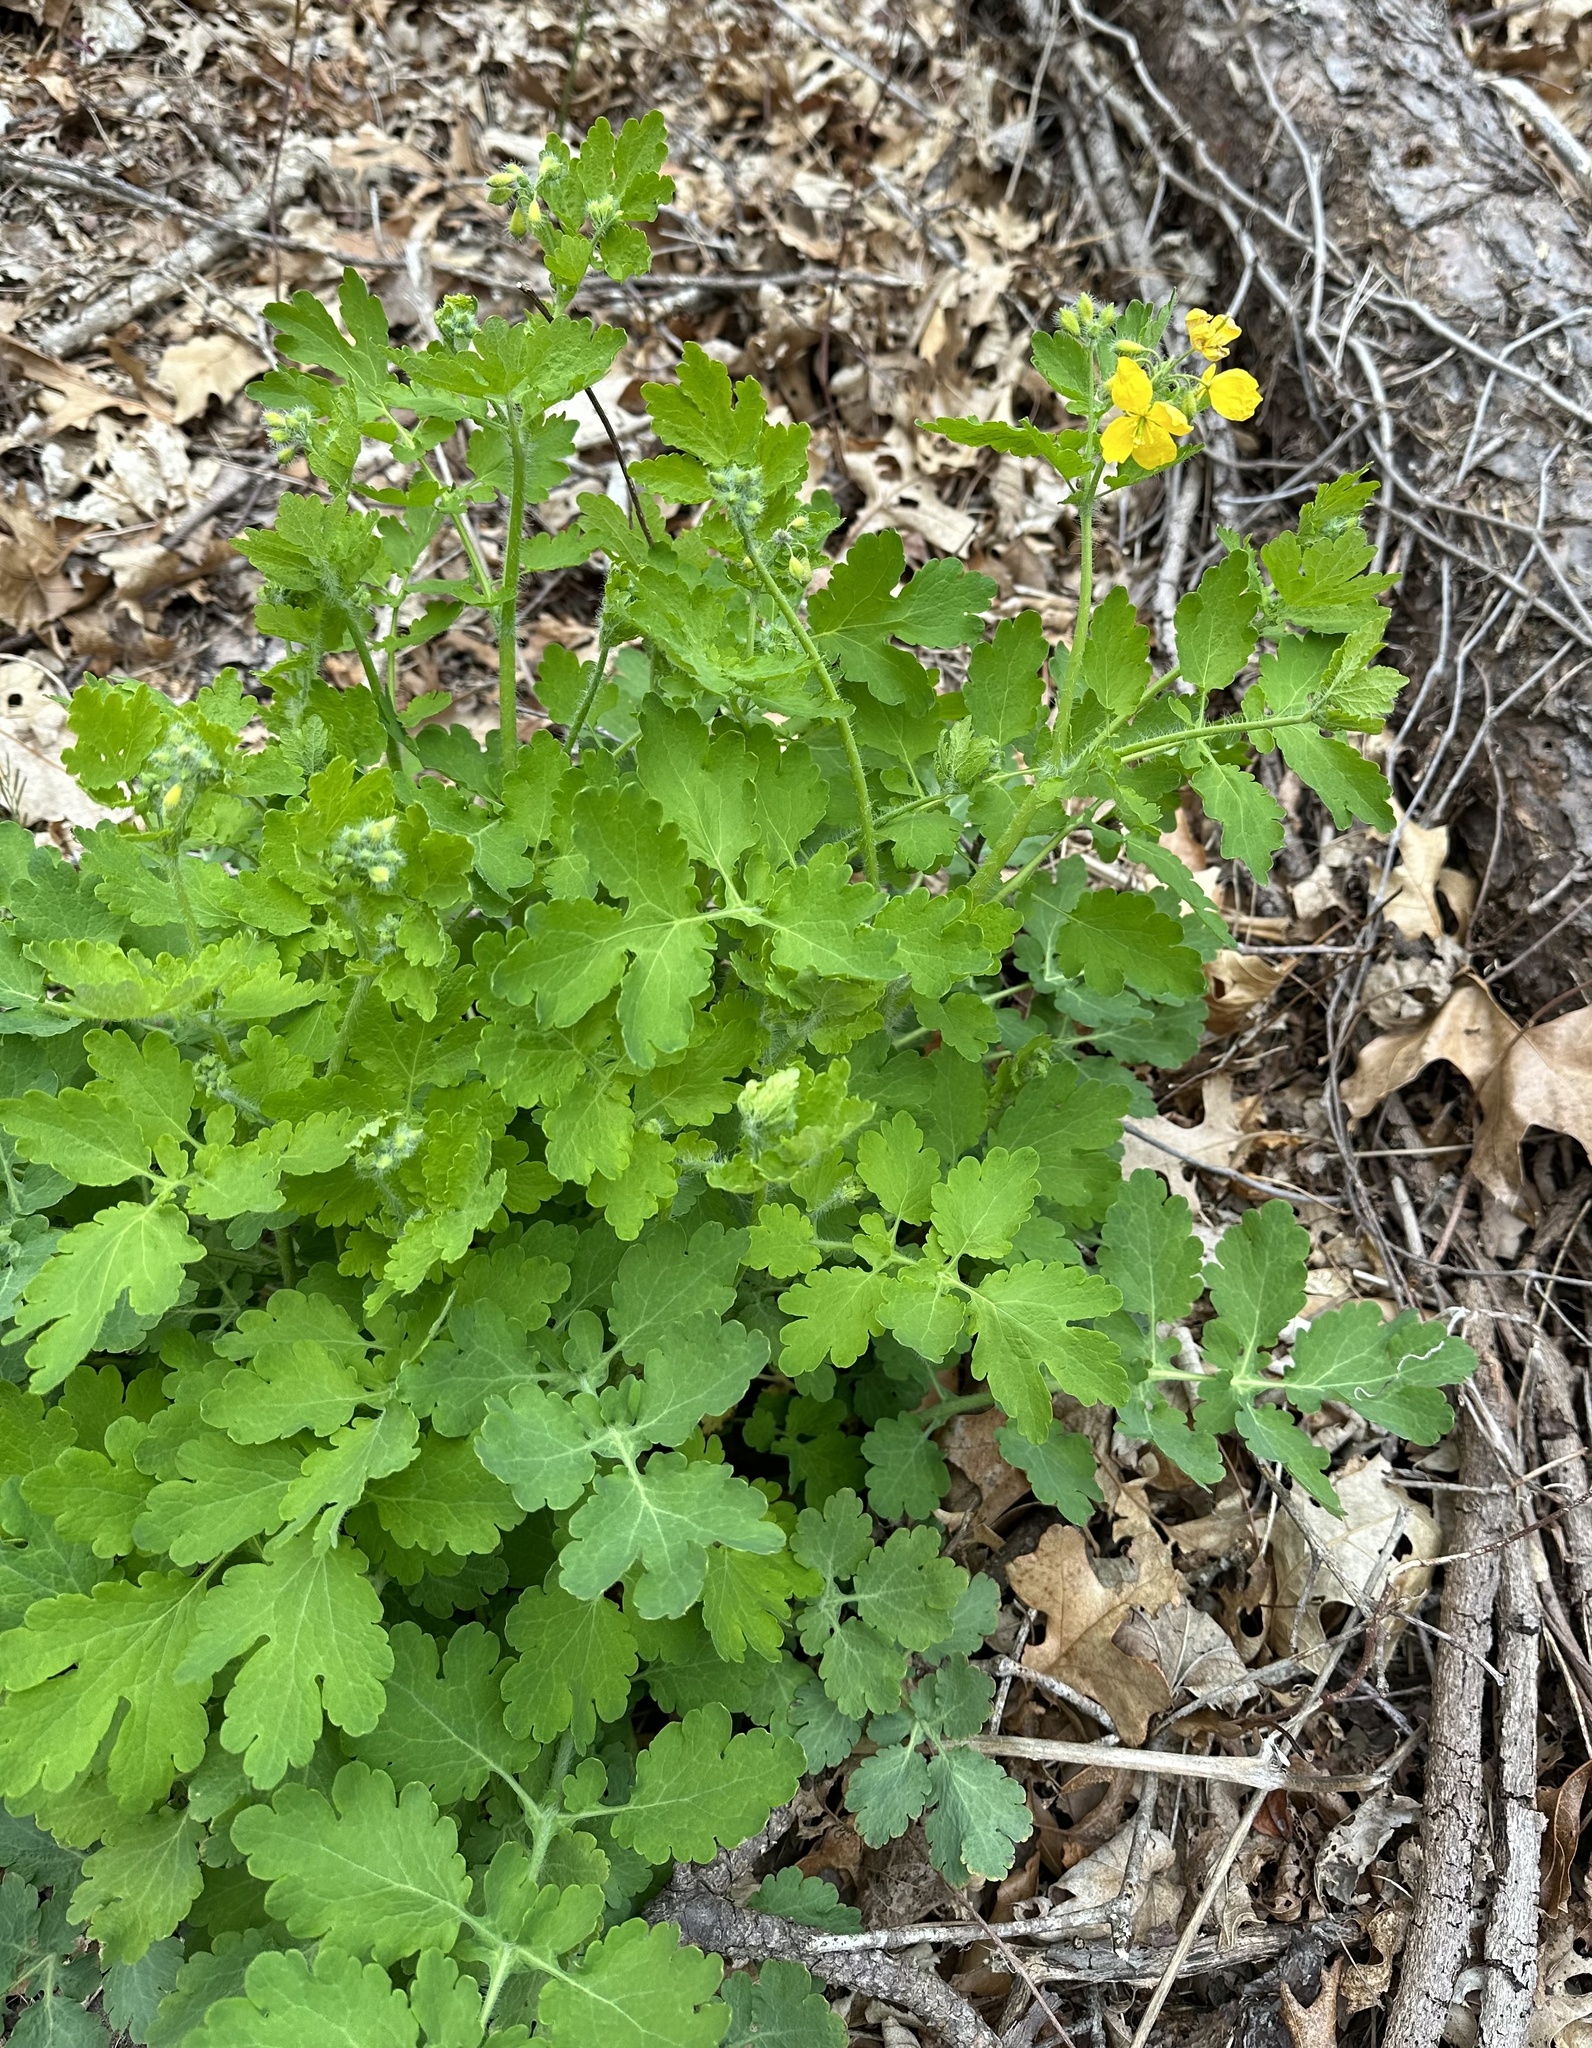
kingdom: Plantae
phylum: Tracheophyta
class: Magnoliopsida
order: Ranunculales
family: Papaveraceae
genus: Chelidonium
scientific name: Chelidonium majus
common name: Greater celandine
